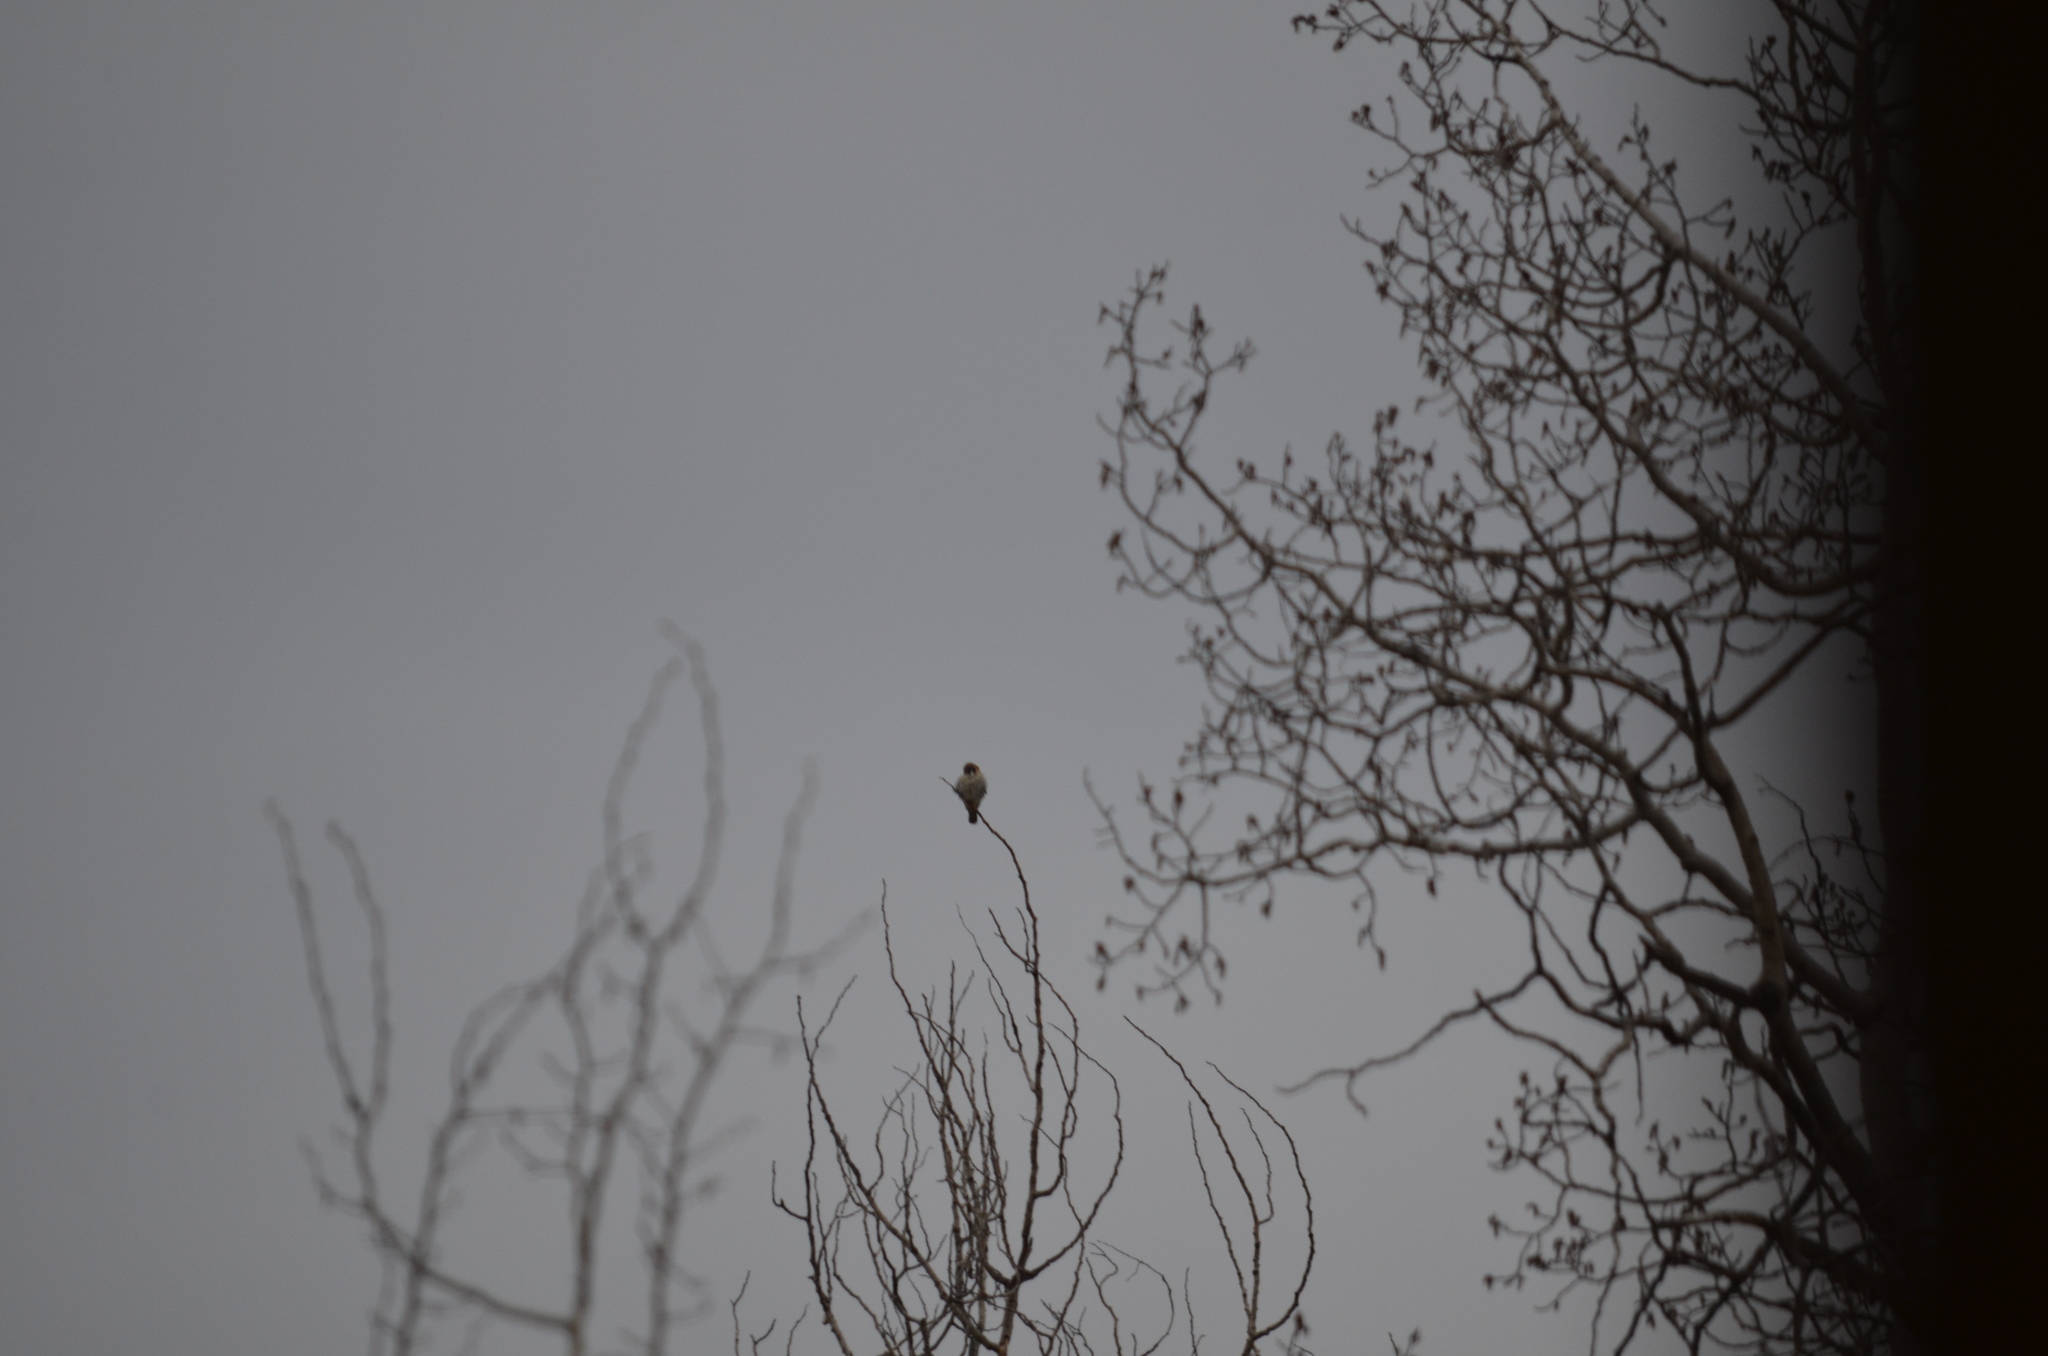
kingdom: Animalia
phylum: Chordata
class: Aves
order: Falconiformes
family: Falconidae
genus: Falco
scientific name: Falco sparverius
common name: American kestrel
